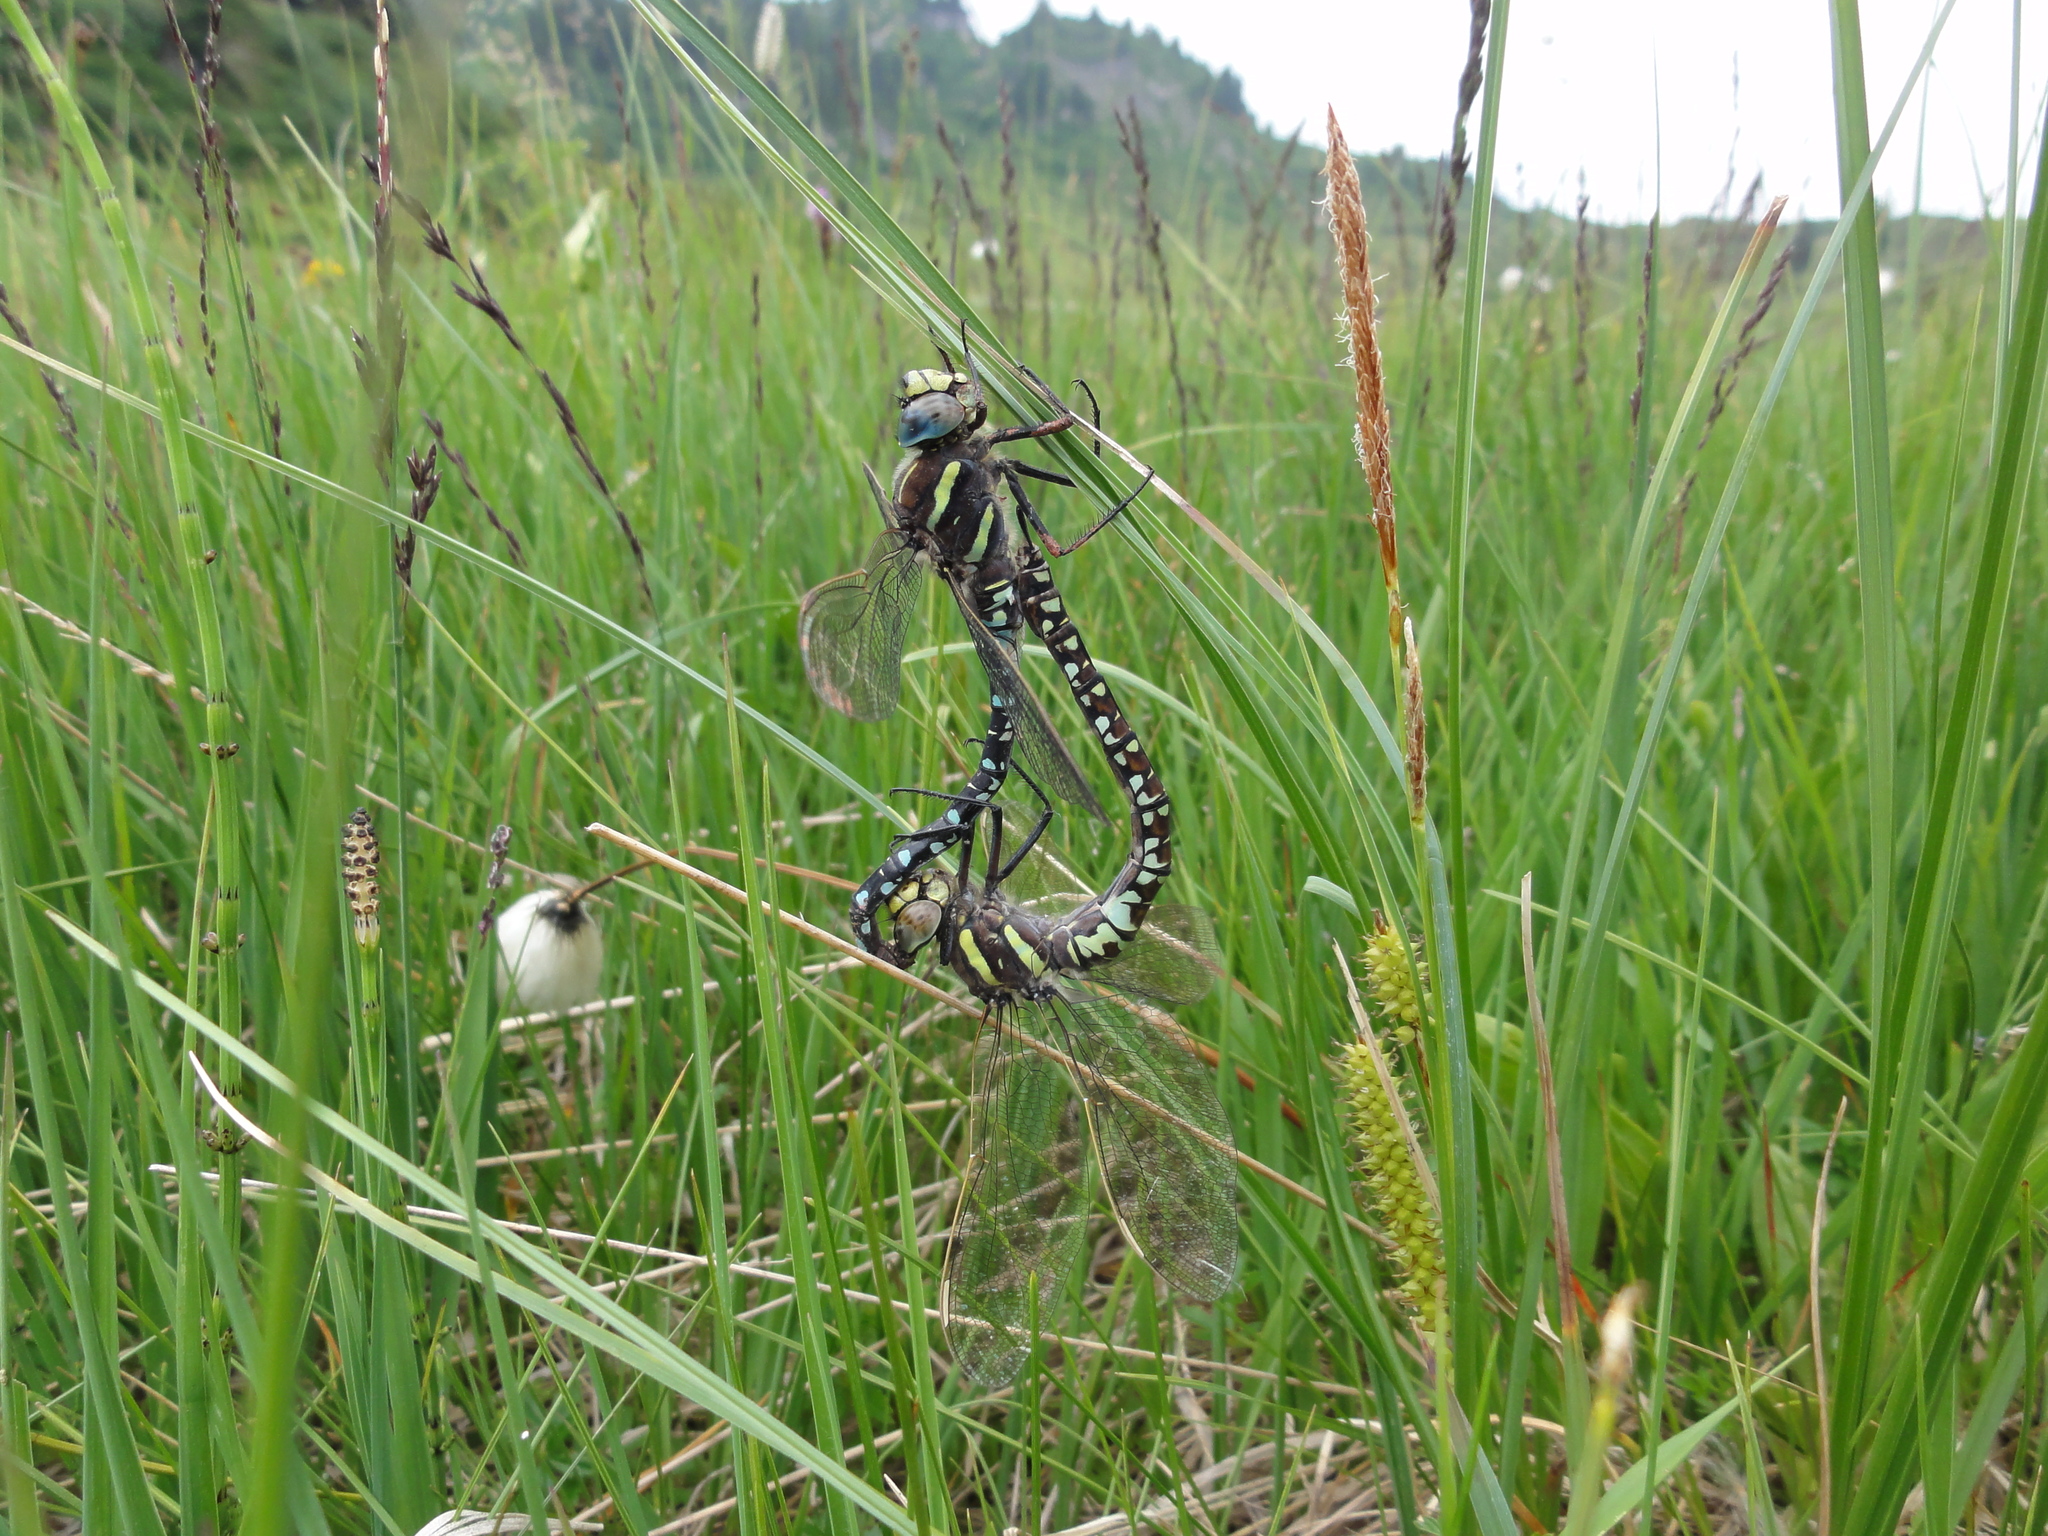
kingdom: Animalia
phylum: Arthropoda
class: Insecta
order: Odonata
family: Aeshnidae
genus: Aeshna
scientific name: Aeshna juncea
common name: Moorland hawker
